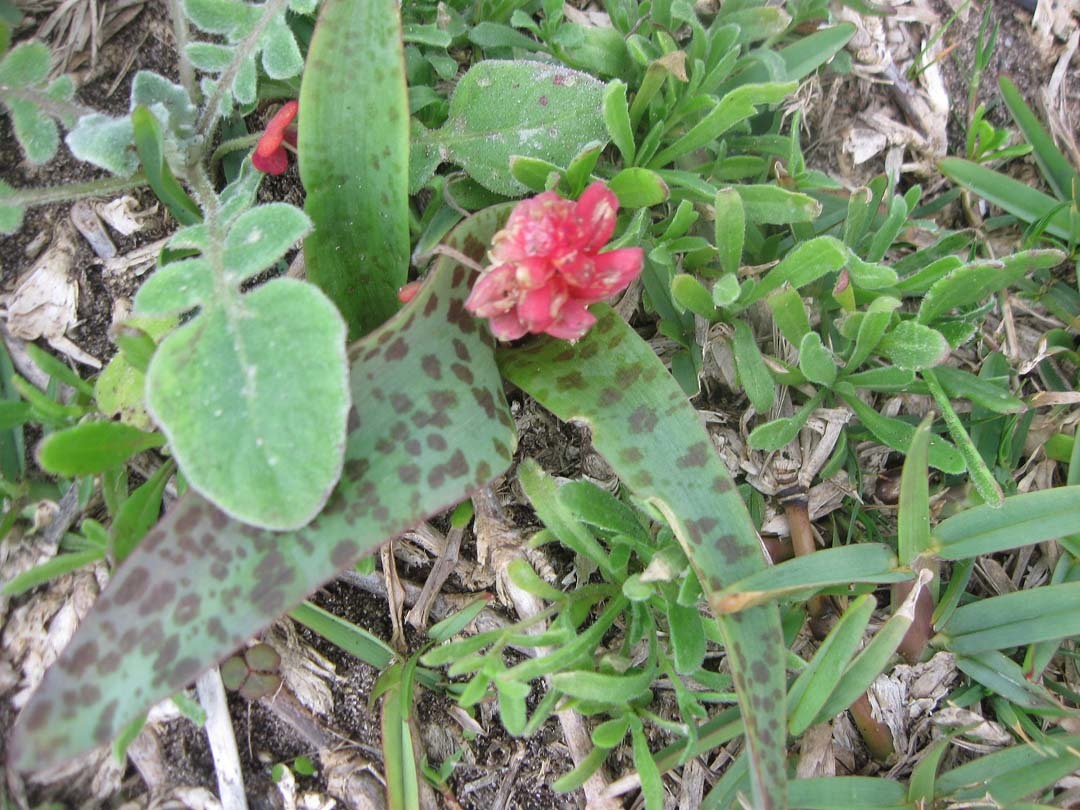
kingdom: Plantae
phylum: Tracheophyta
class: Liliopsida
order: Asparagales
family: Asparagaceae
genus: Lachenalia
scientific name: Lachenalia bulbifera
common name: Red lachenalia
